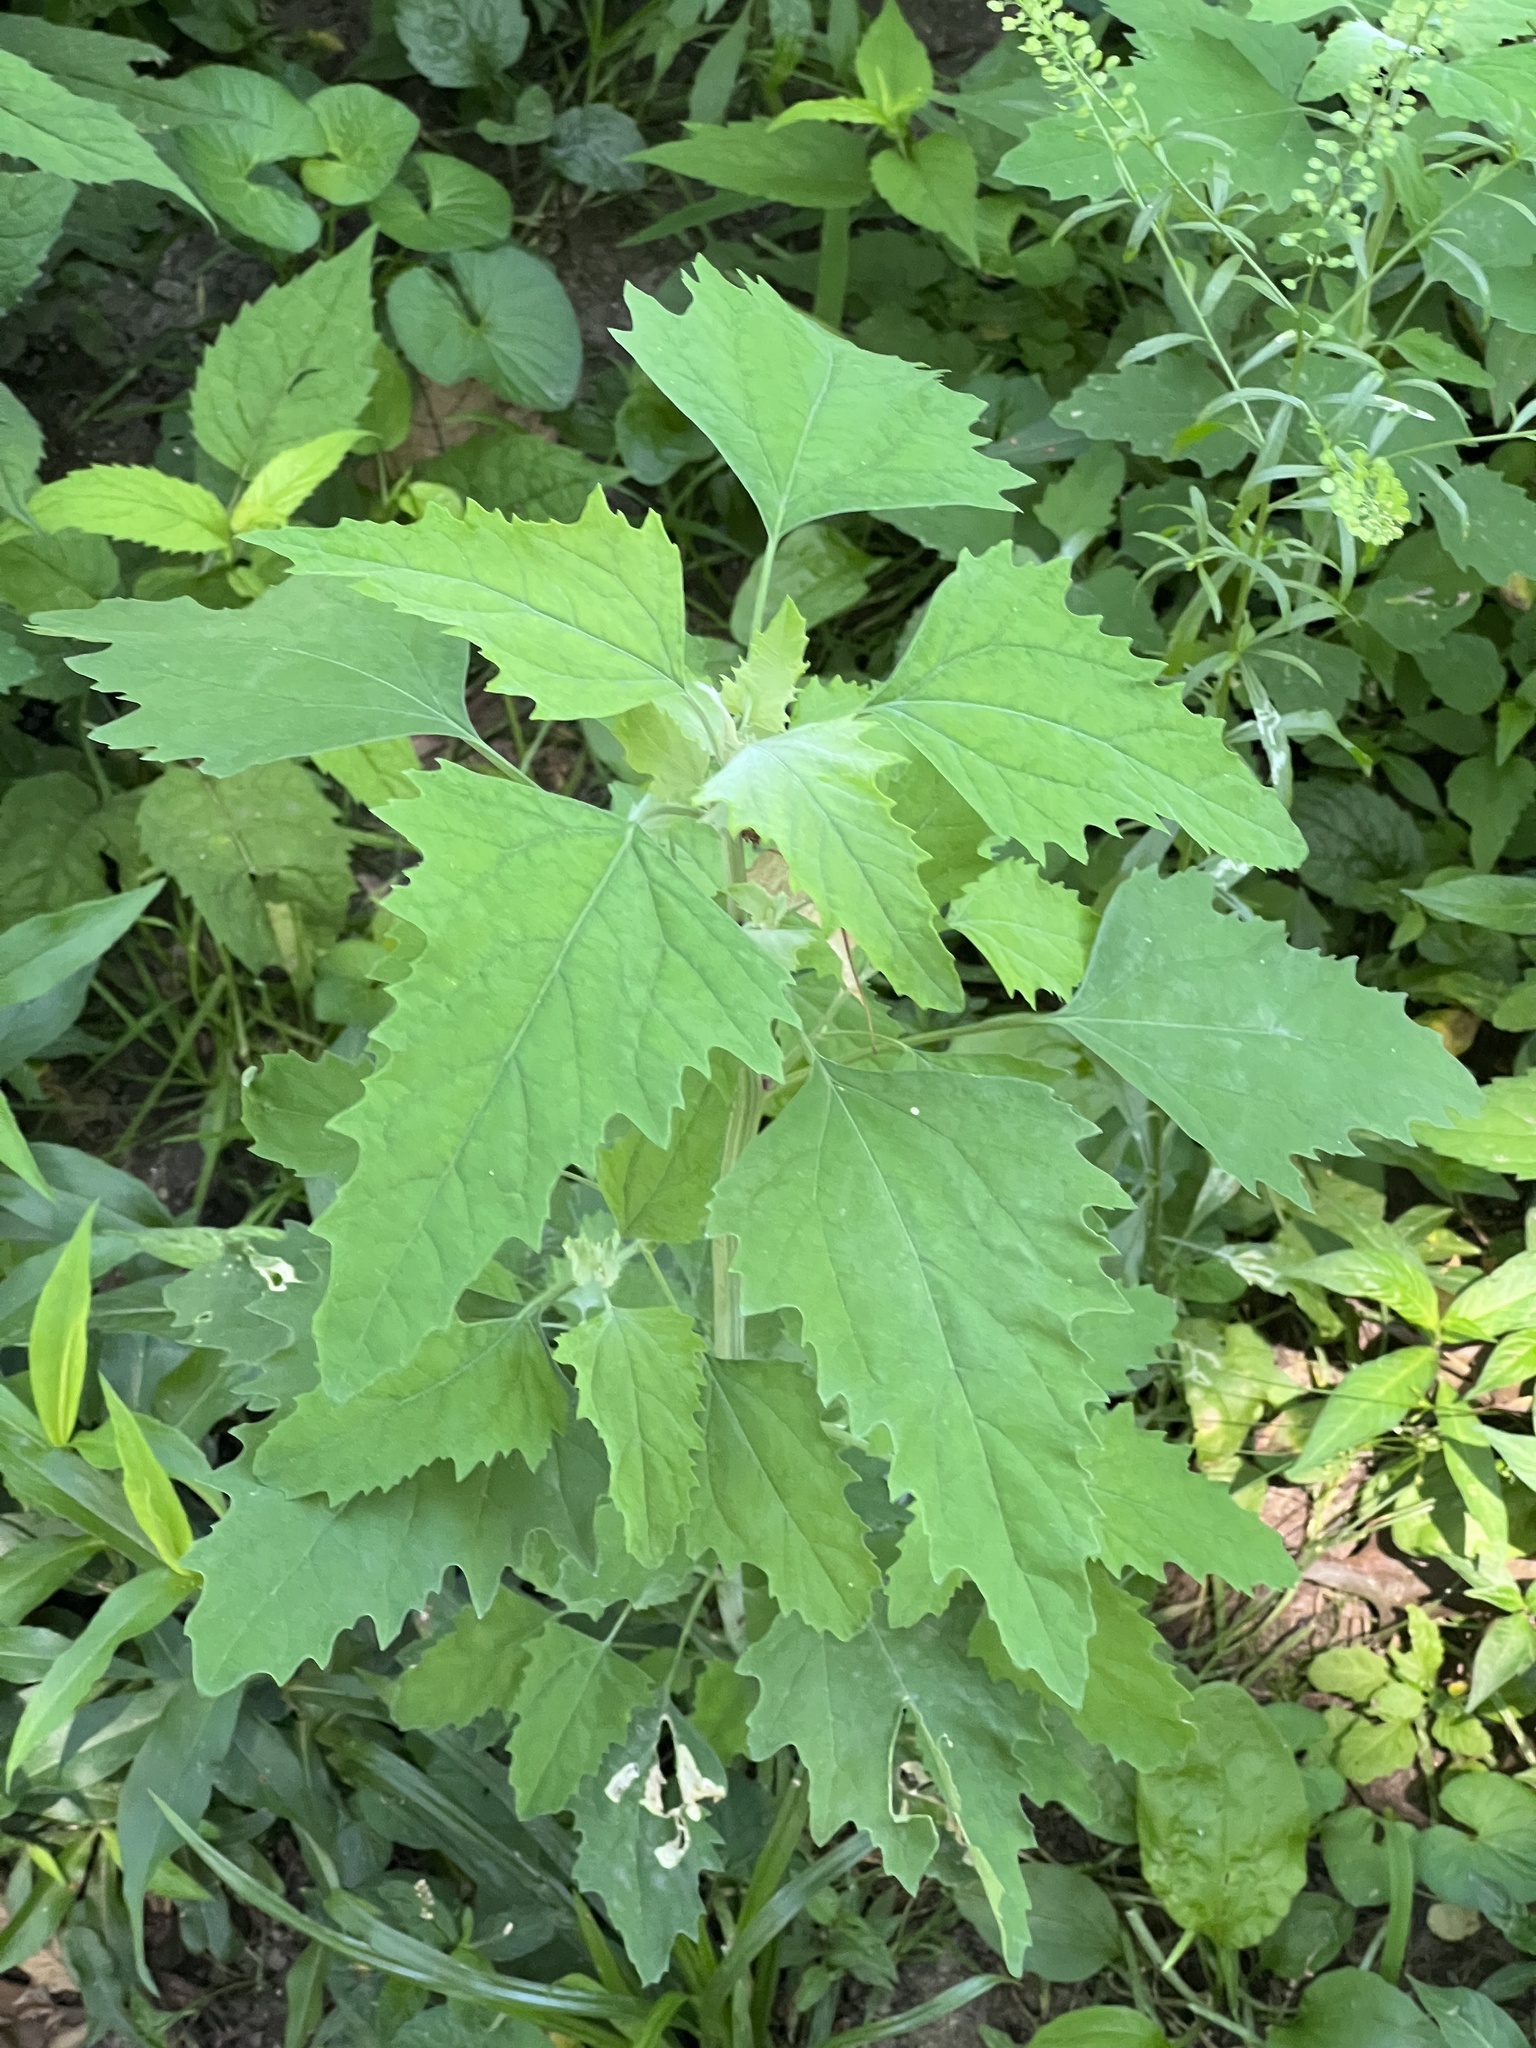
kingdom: Plantae
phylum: Tracheophyta
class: Magnoliopsida
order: Caryophyllales
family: Amaranthaceae
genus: Chenopodium
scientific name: Chenopodium album
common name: Fat-hen
